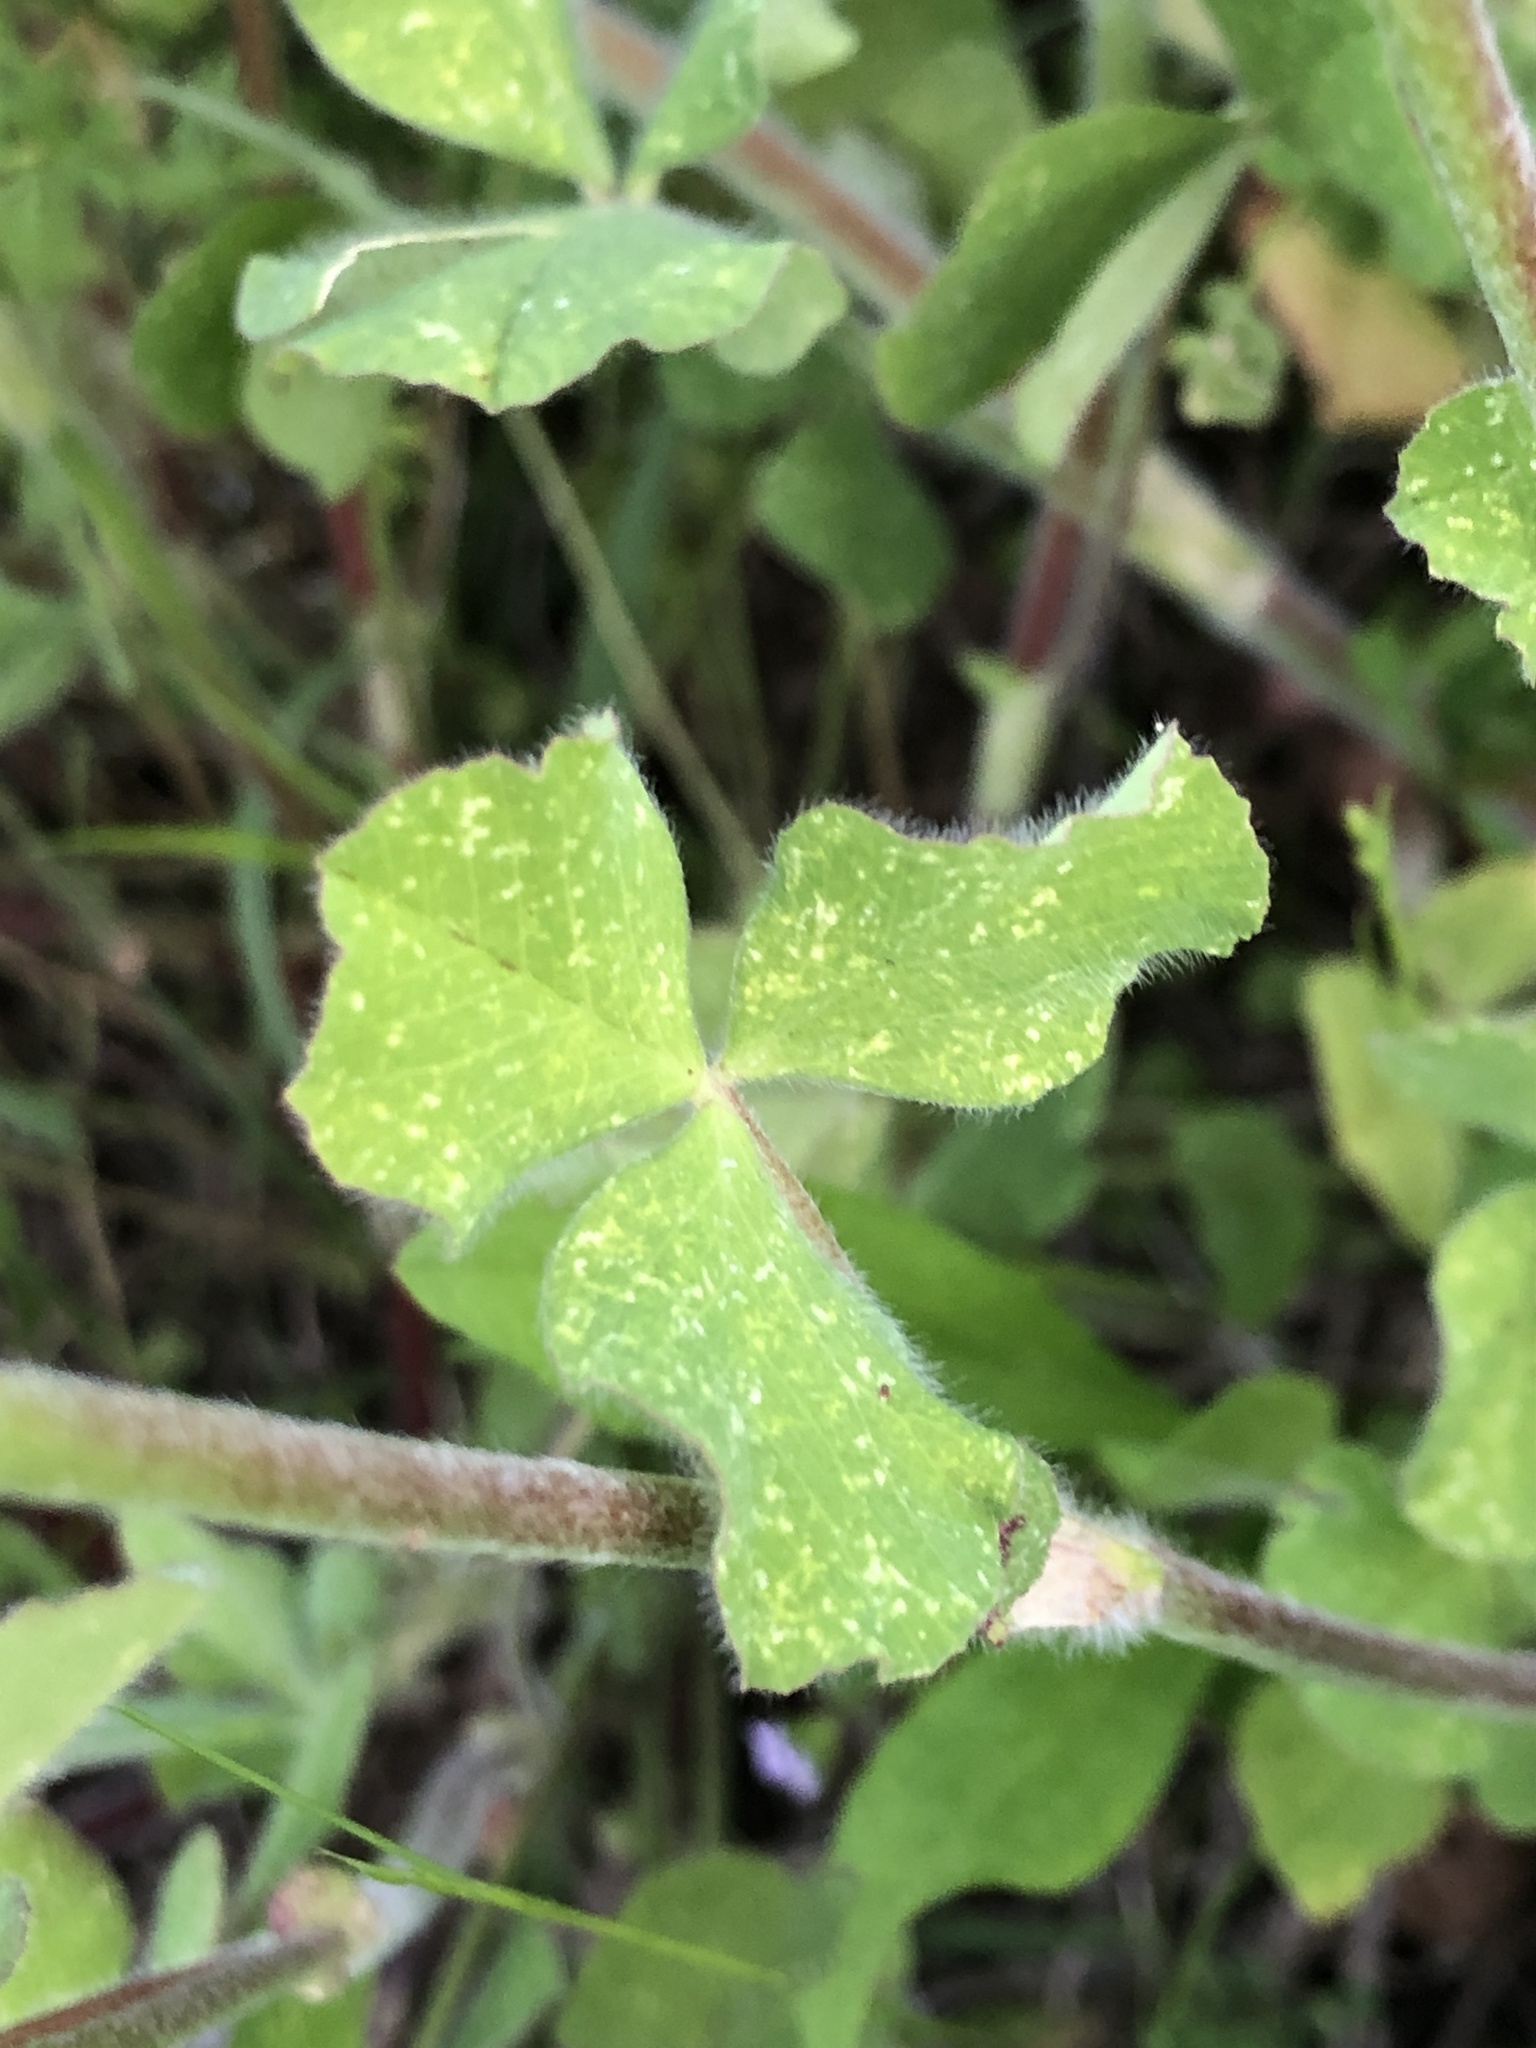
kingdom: Plantae
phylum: Tracheophyta
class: Magnoliopsida
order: Fabales
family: Fabaceae
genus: Trifolium
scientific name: Trifolium incarnatum
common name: Crimson clover
